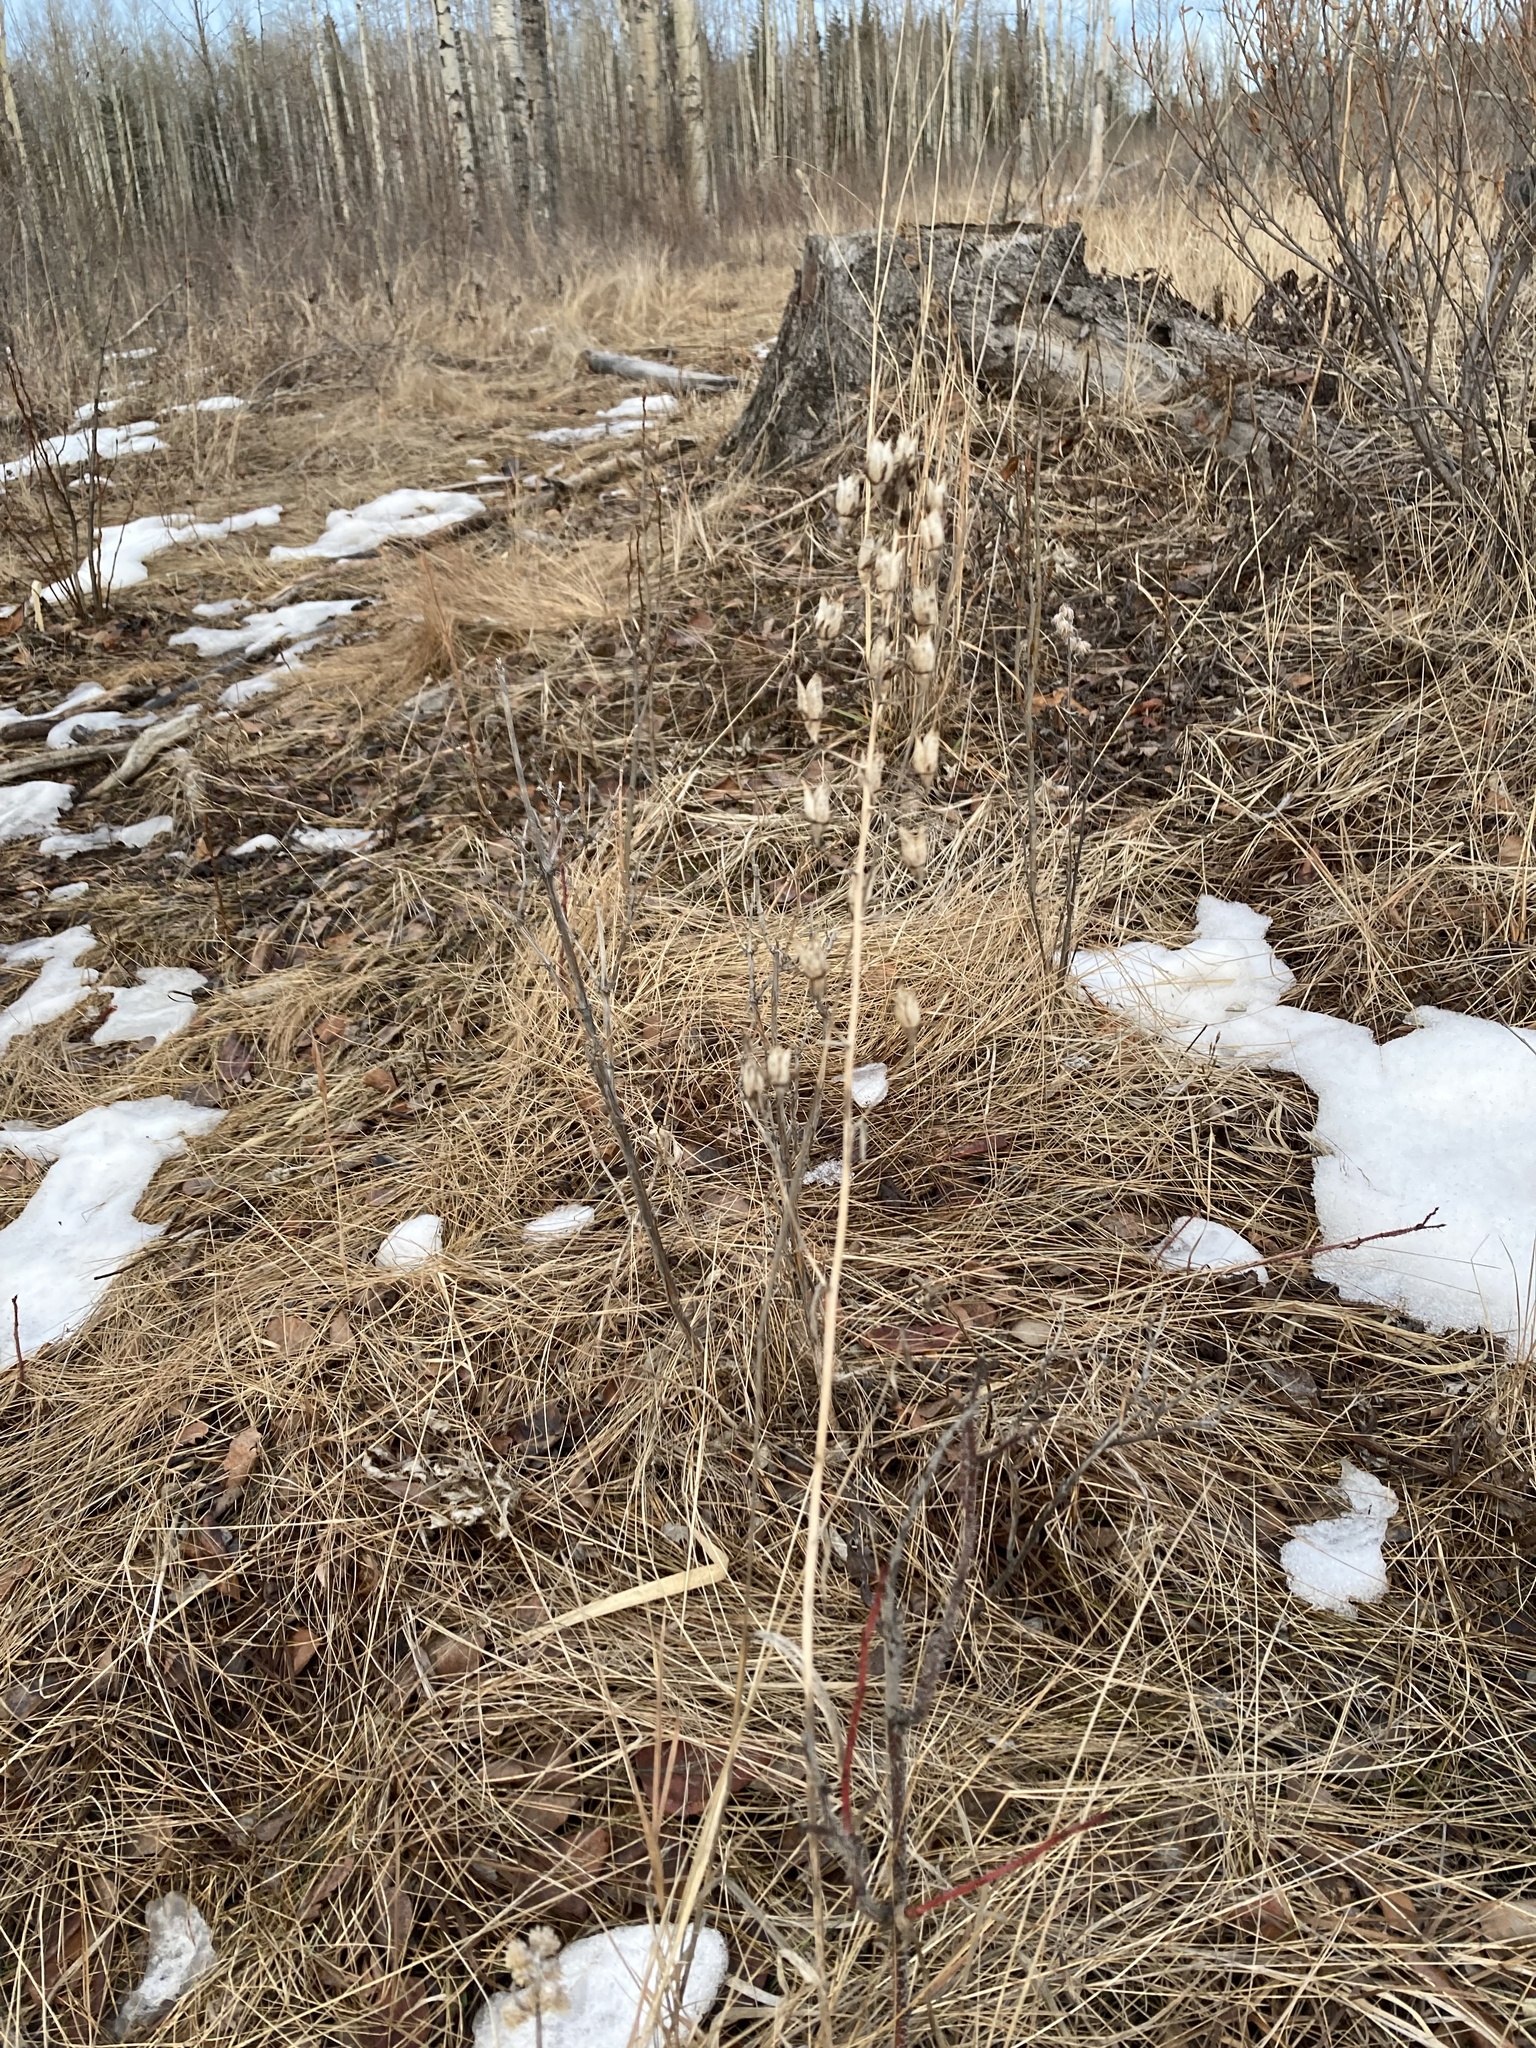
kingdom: Plantae
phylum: Tracheophyta
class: Magnoliopsida
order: Ranunculales
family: Ranunculaceae
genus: Delphinium
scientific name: Delphinium glaucum
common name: Brown's larkspur
